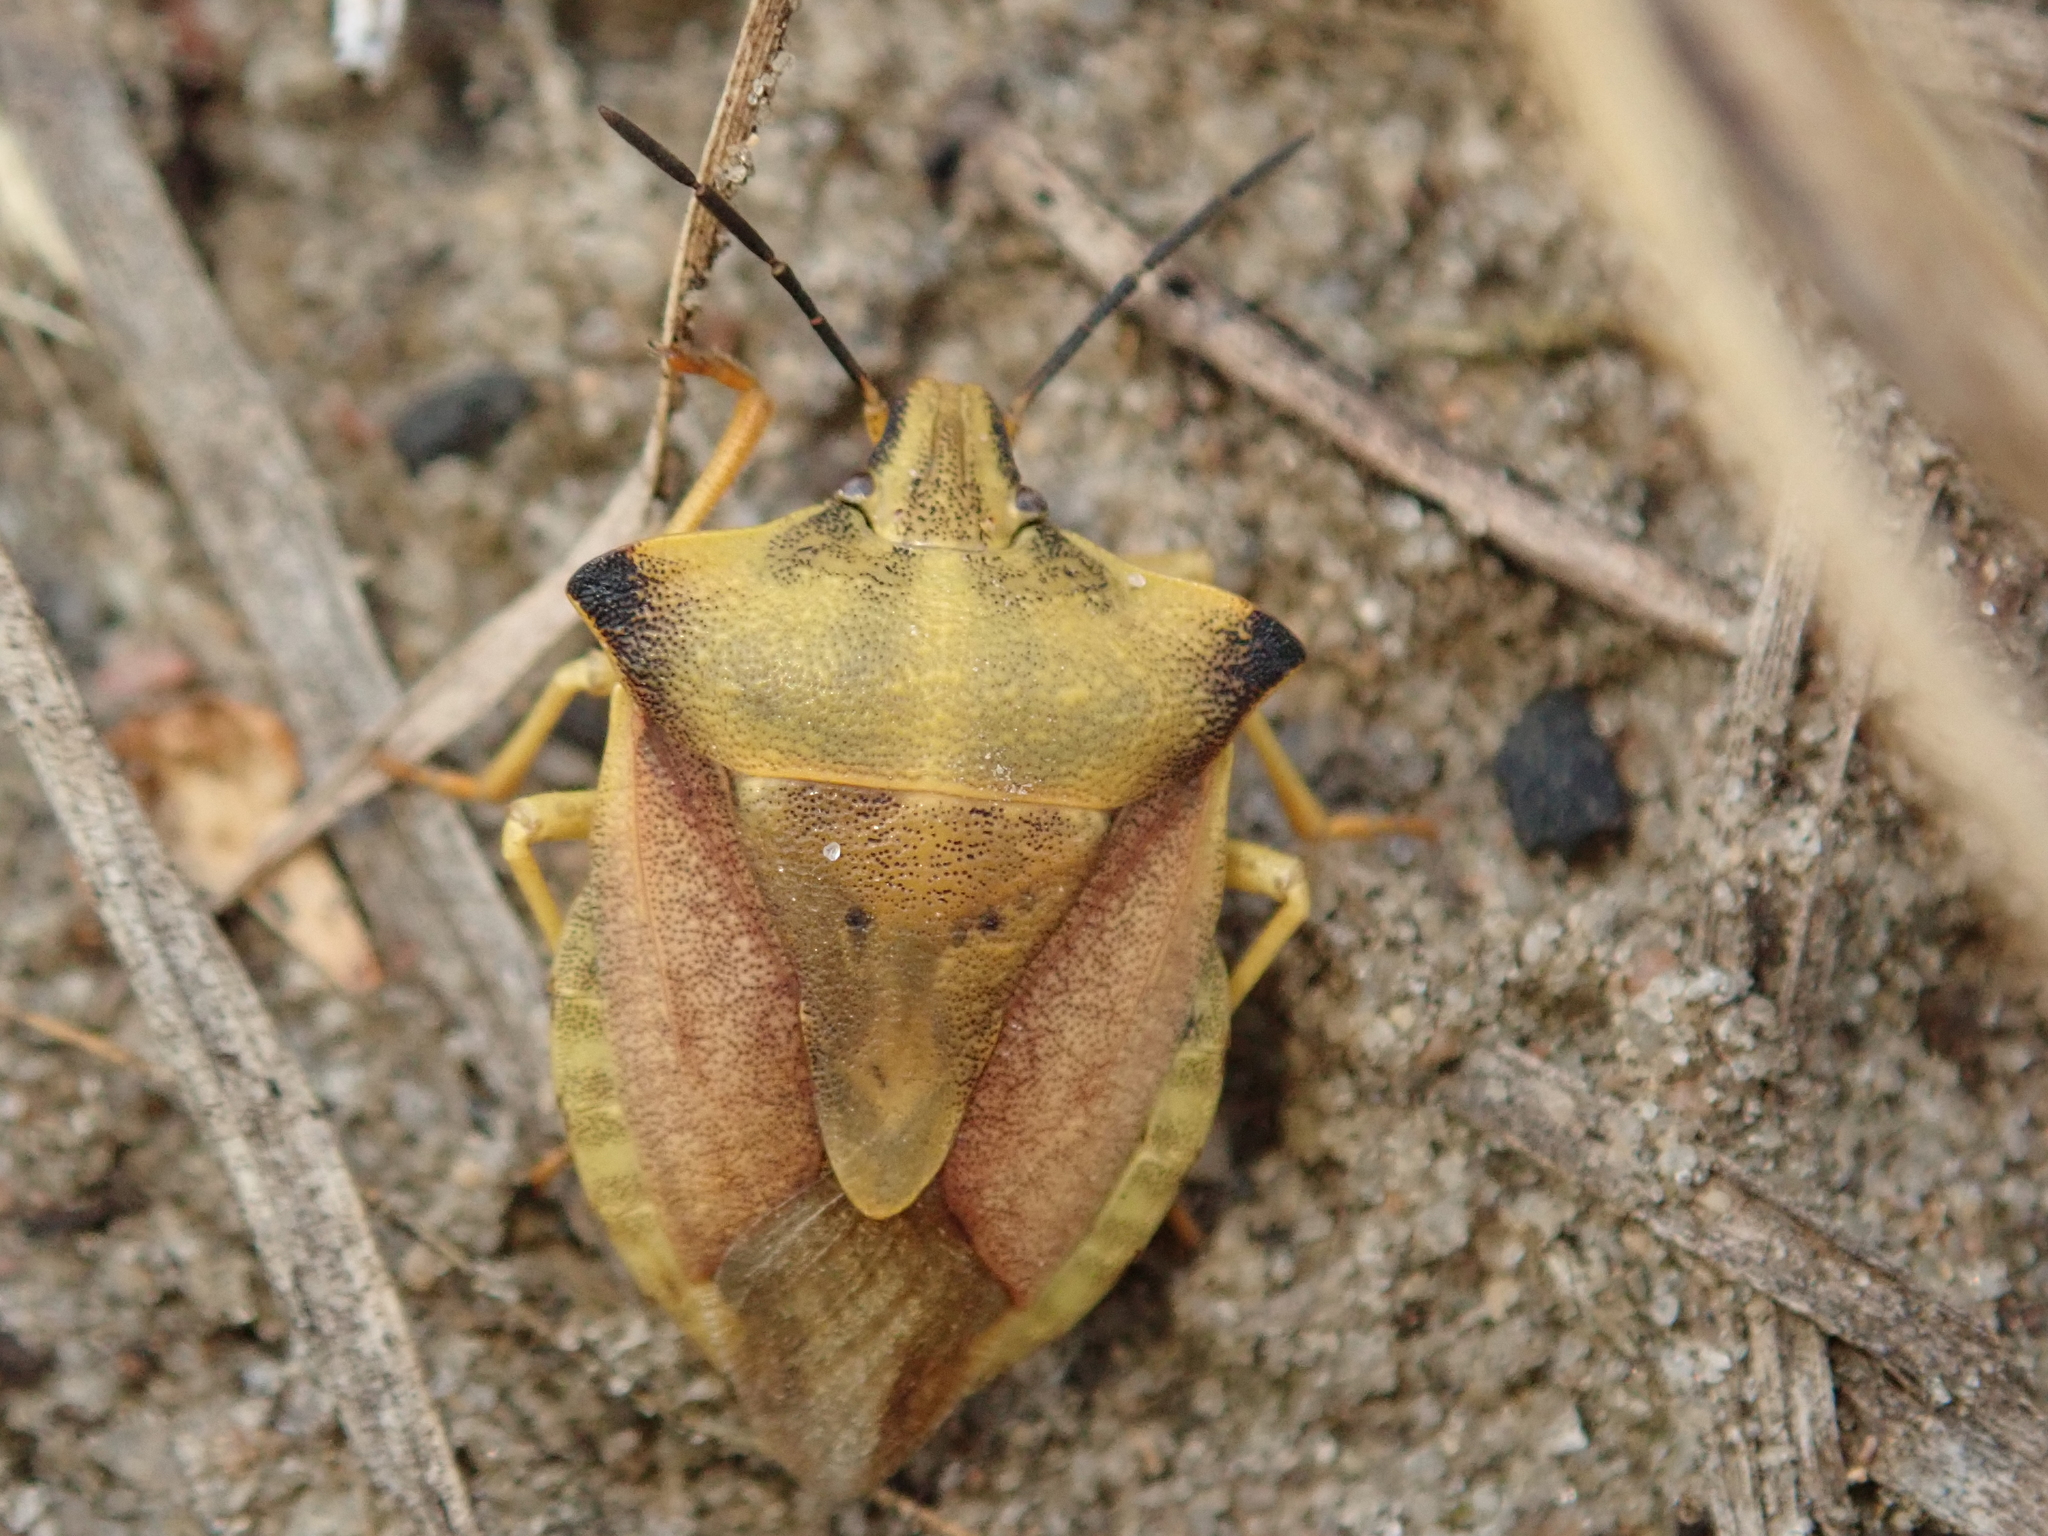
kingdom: Animalia
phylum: Arthropoda
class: Insecta
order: Hemiptera
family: Pentatomidae
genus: Carpocoris
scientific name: Carpocoris fuscispinus
